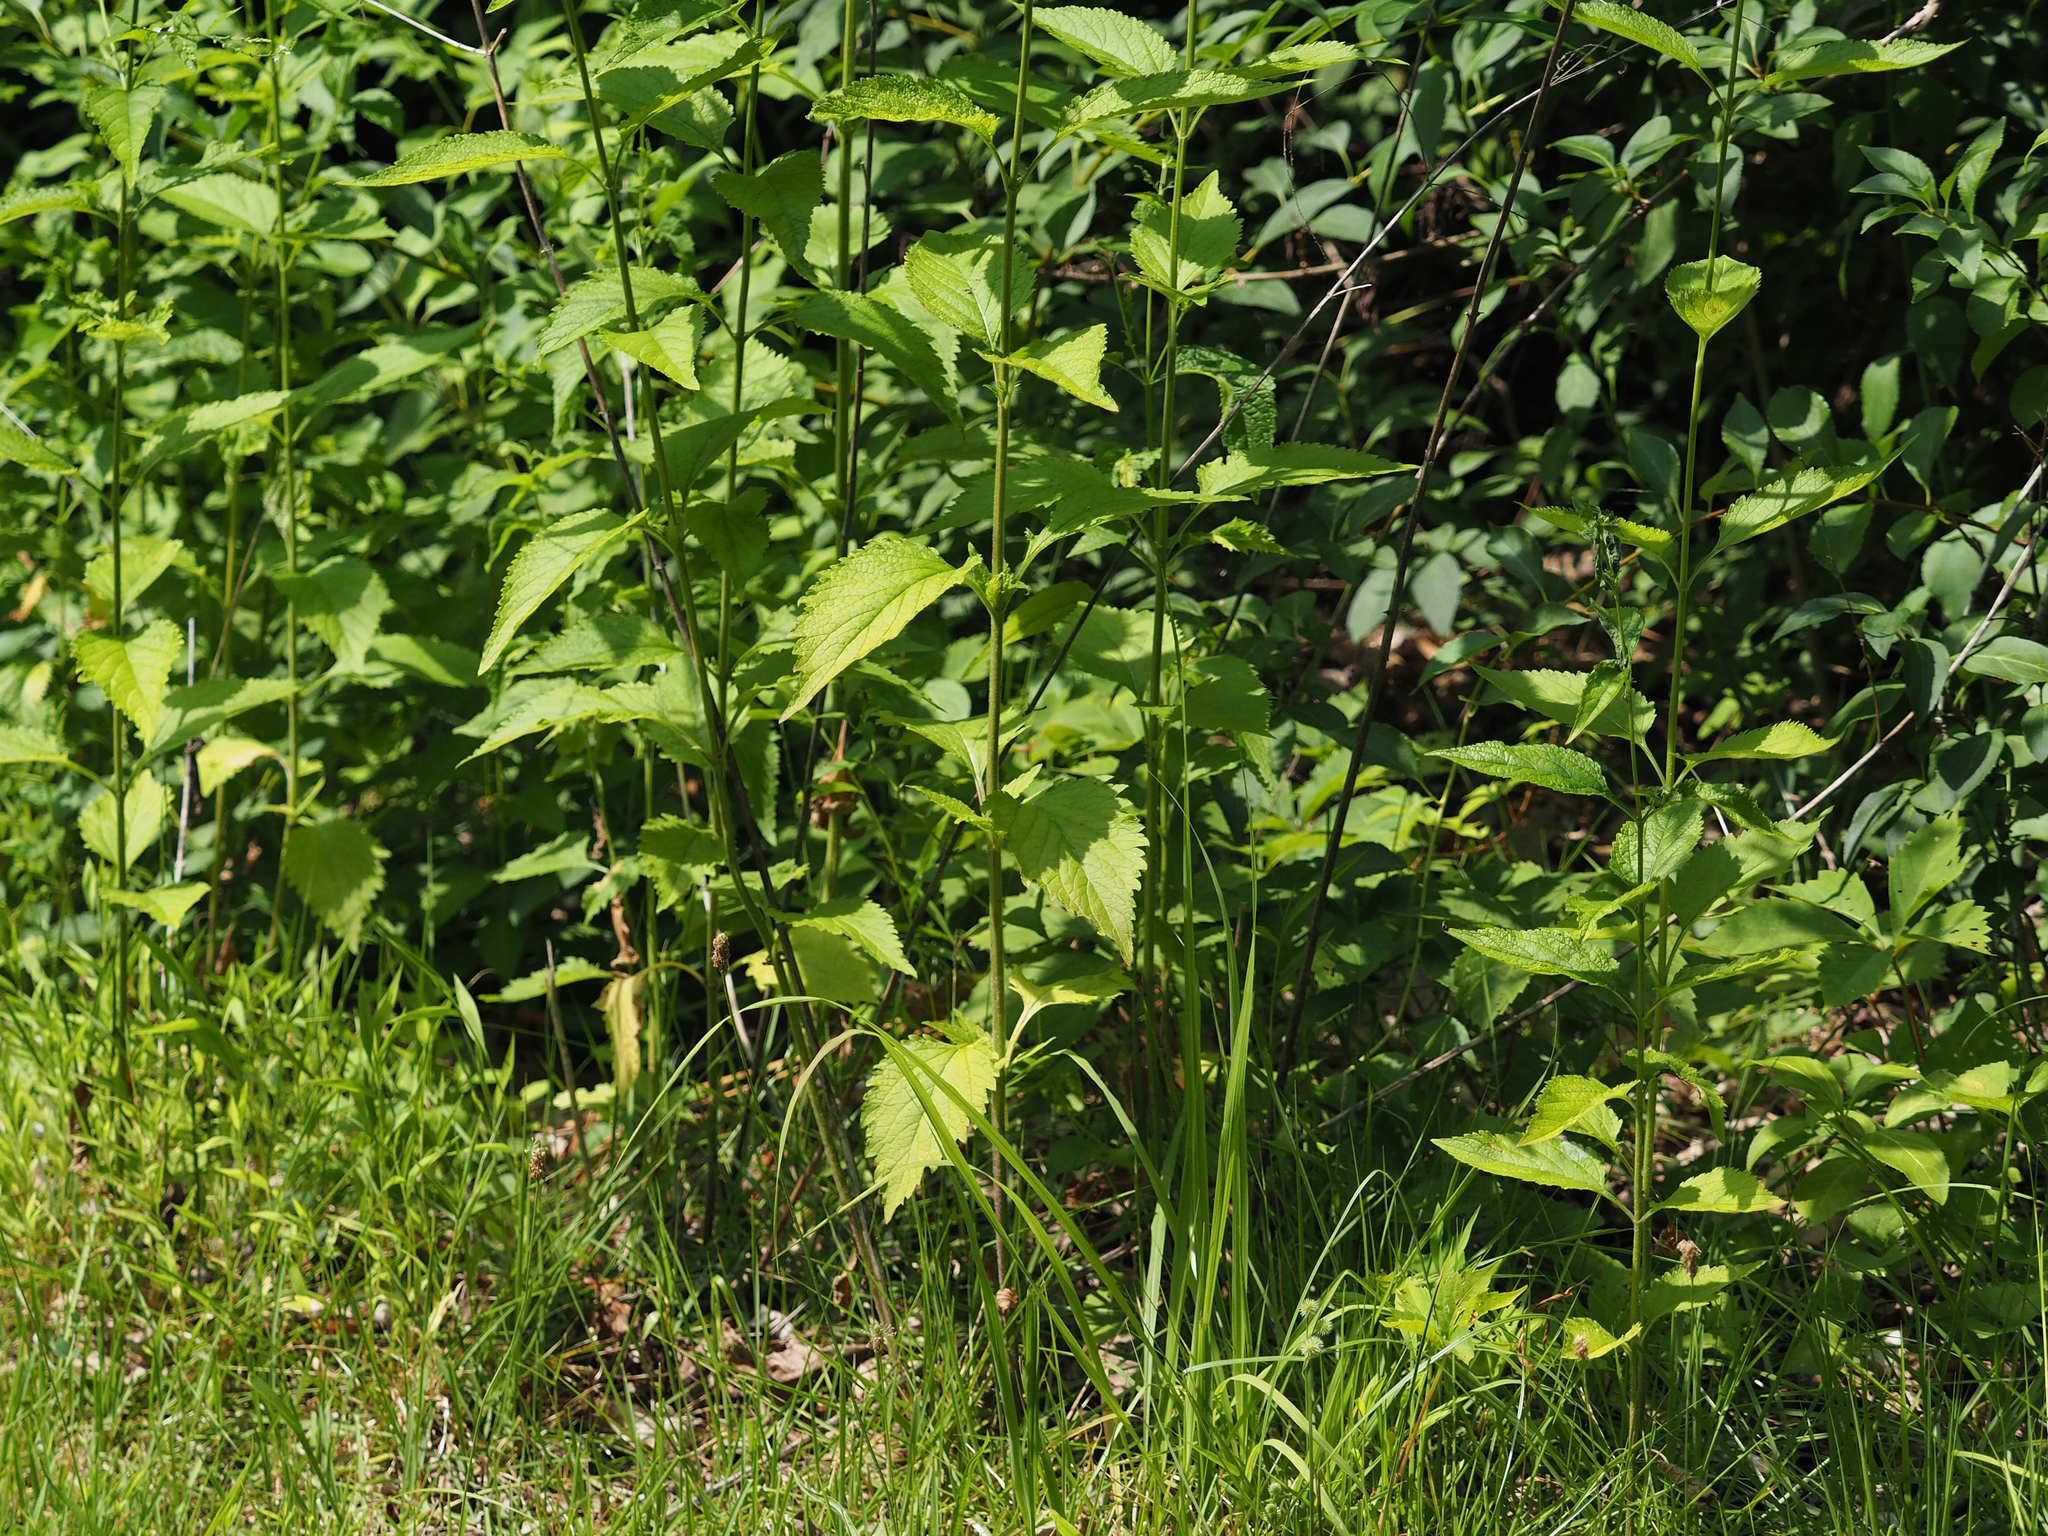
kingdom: Plantae
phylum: Tracheophyta
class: Magnoliopsida
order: Lamiales
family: Verbenaceae
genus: Verbena
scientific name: Verbena urticifolia
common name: Nettle-leaved vervain
